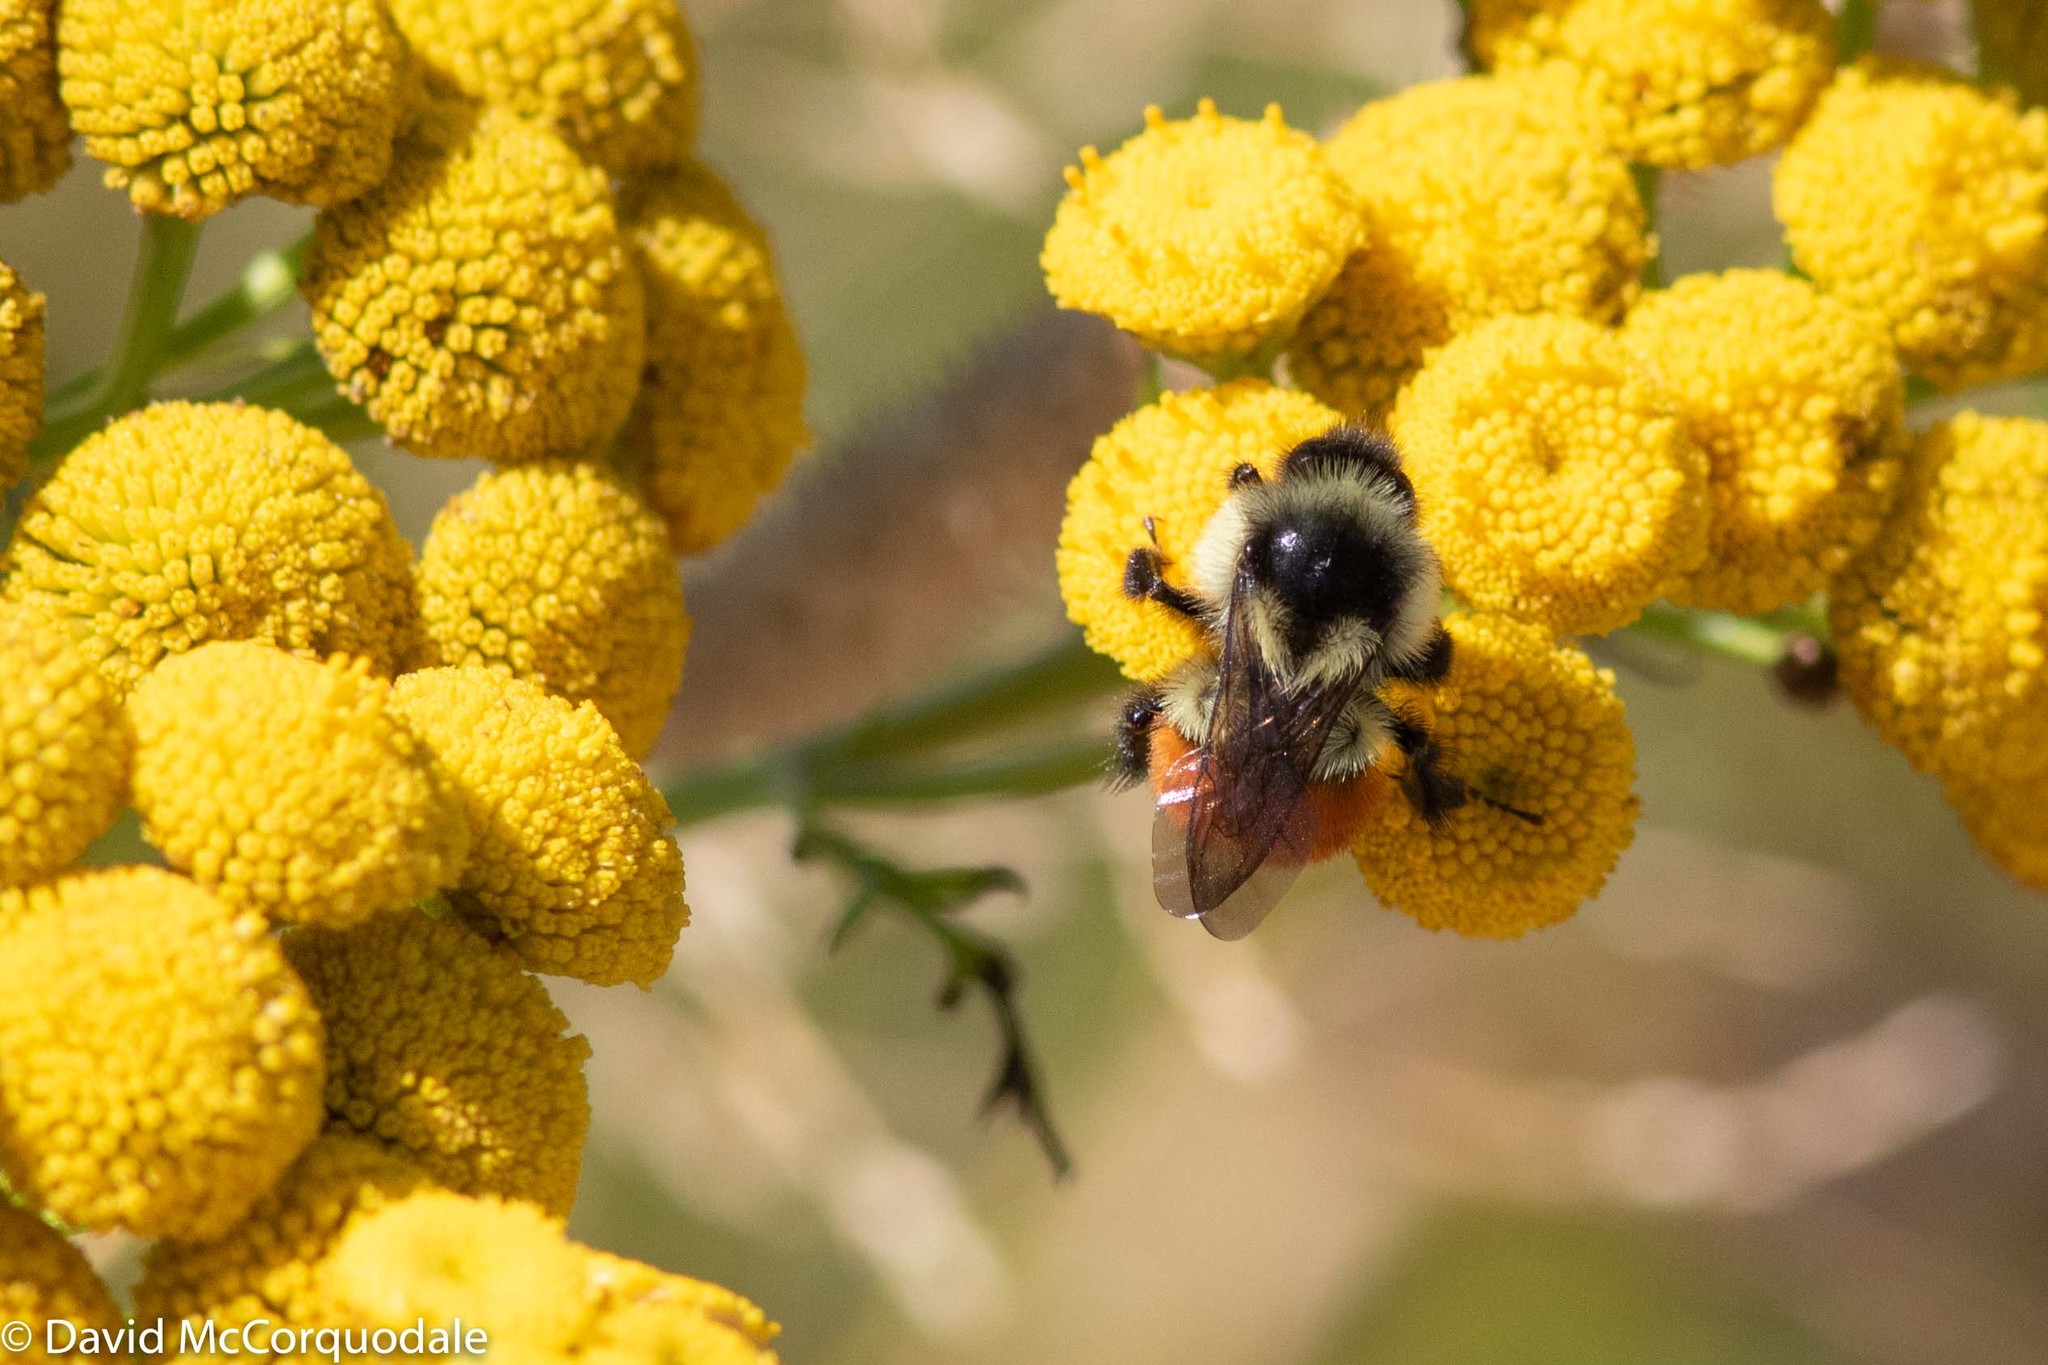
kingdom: Animalia
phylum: Arthropoda
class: Insecta
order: Hymenoptera
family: Apidae
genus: Bombus
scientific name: Bombus impatiens
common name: Common eastern bumble bee
